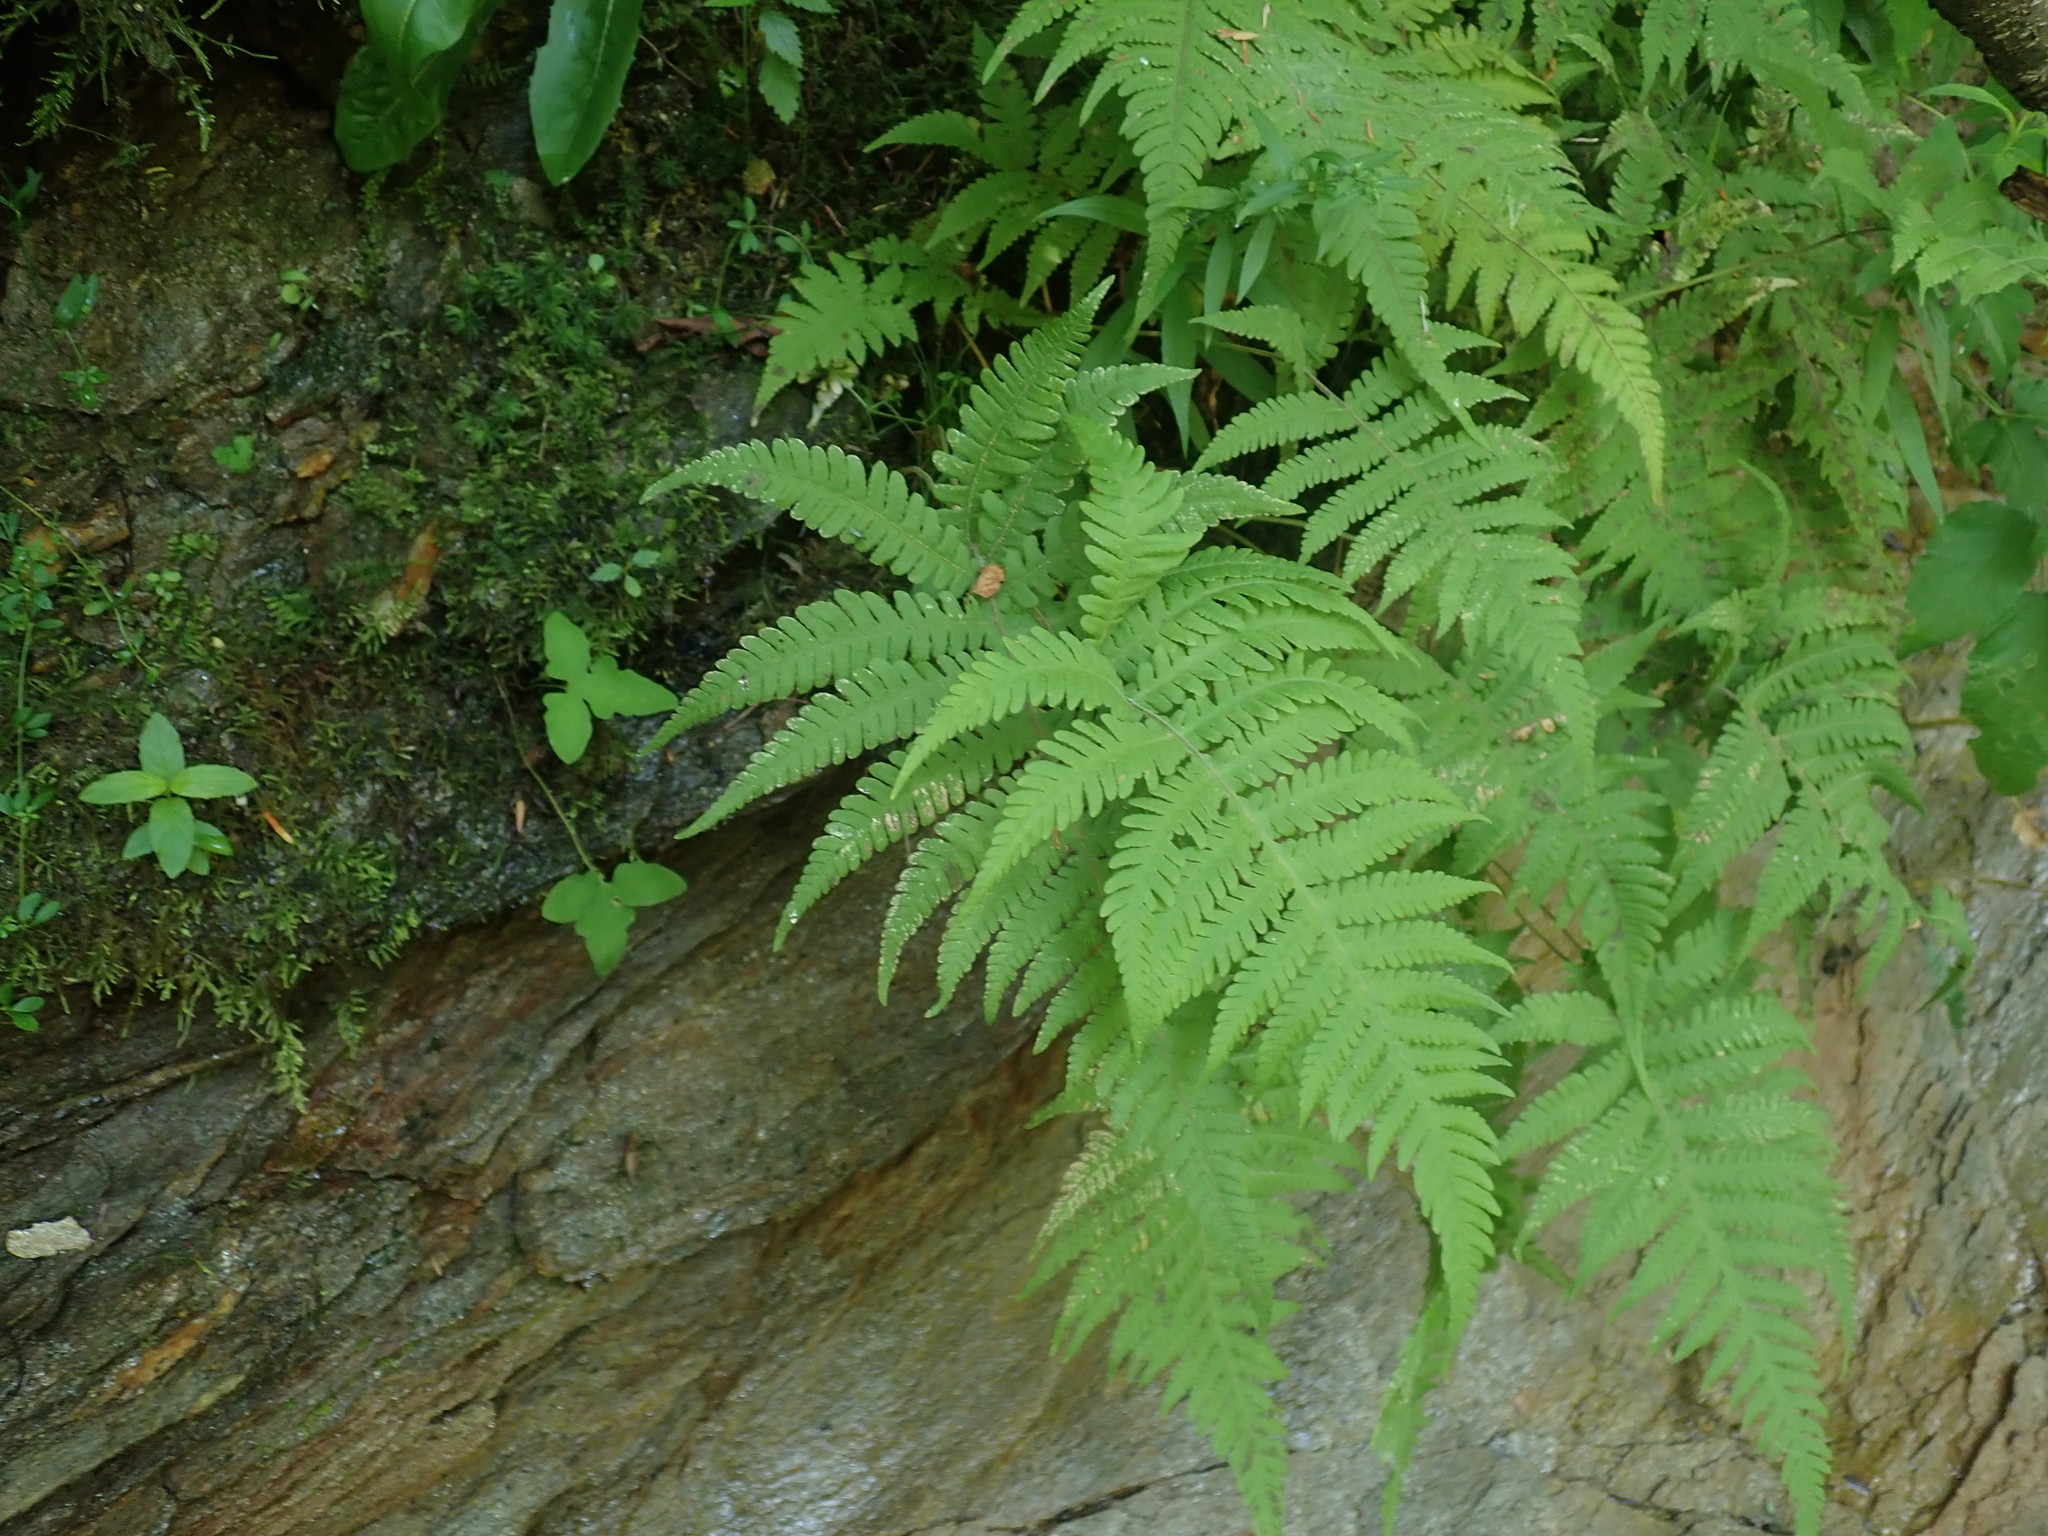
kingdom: Plantae
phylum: Tracheophyta
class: Polypodiopsida
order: Polypodiales
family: Thelypteridaceae
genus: Phegopteris
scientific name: Phegopteris connectilis
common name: Beech fern
